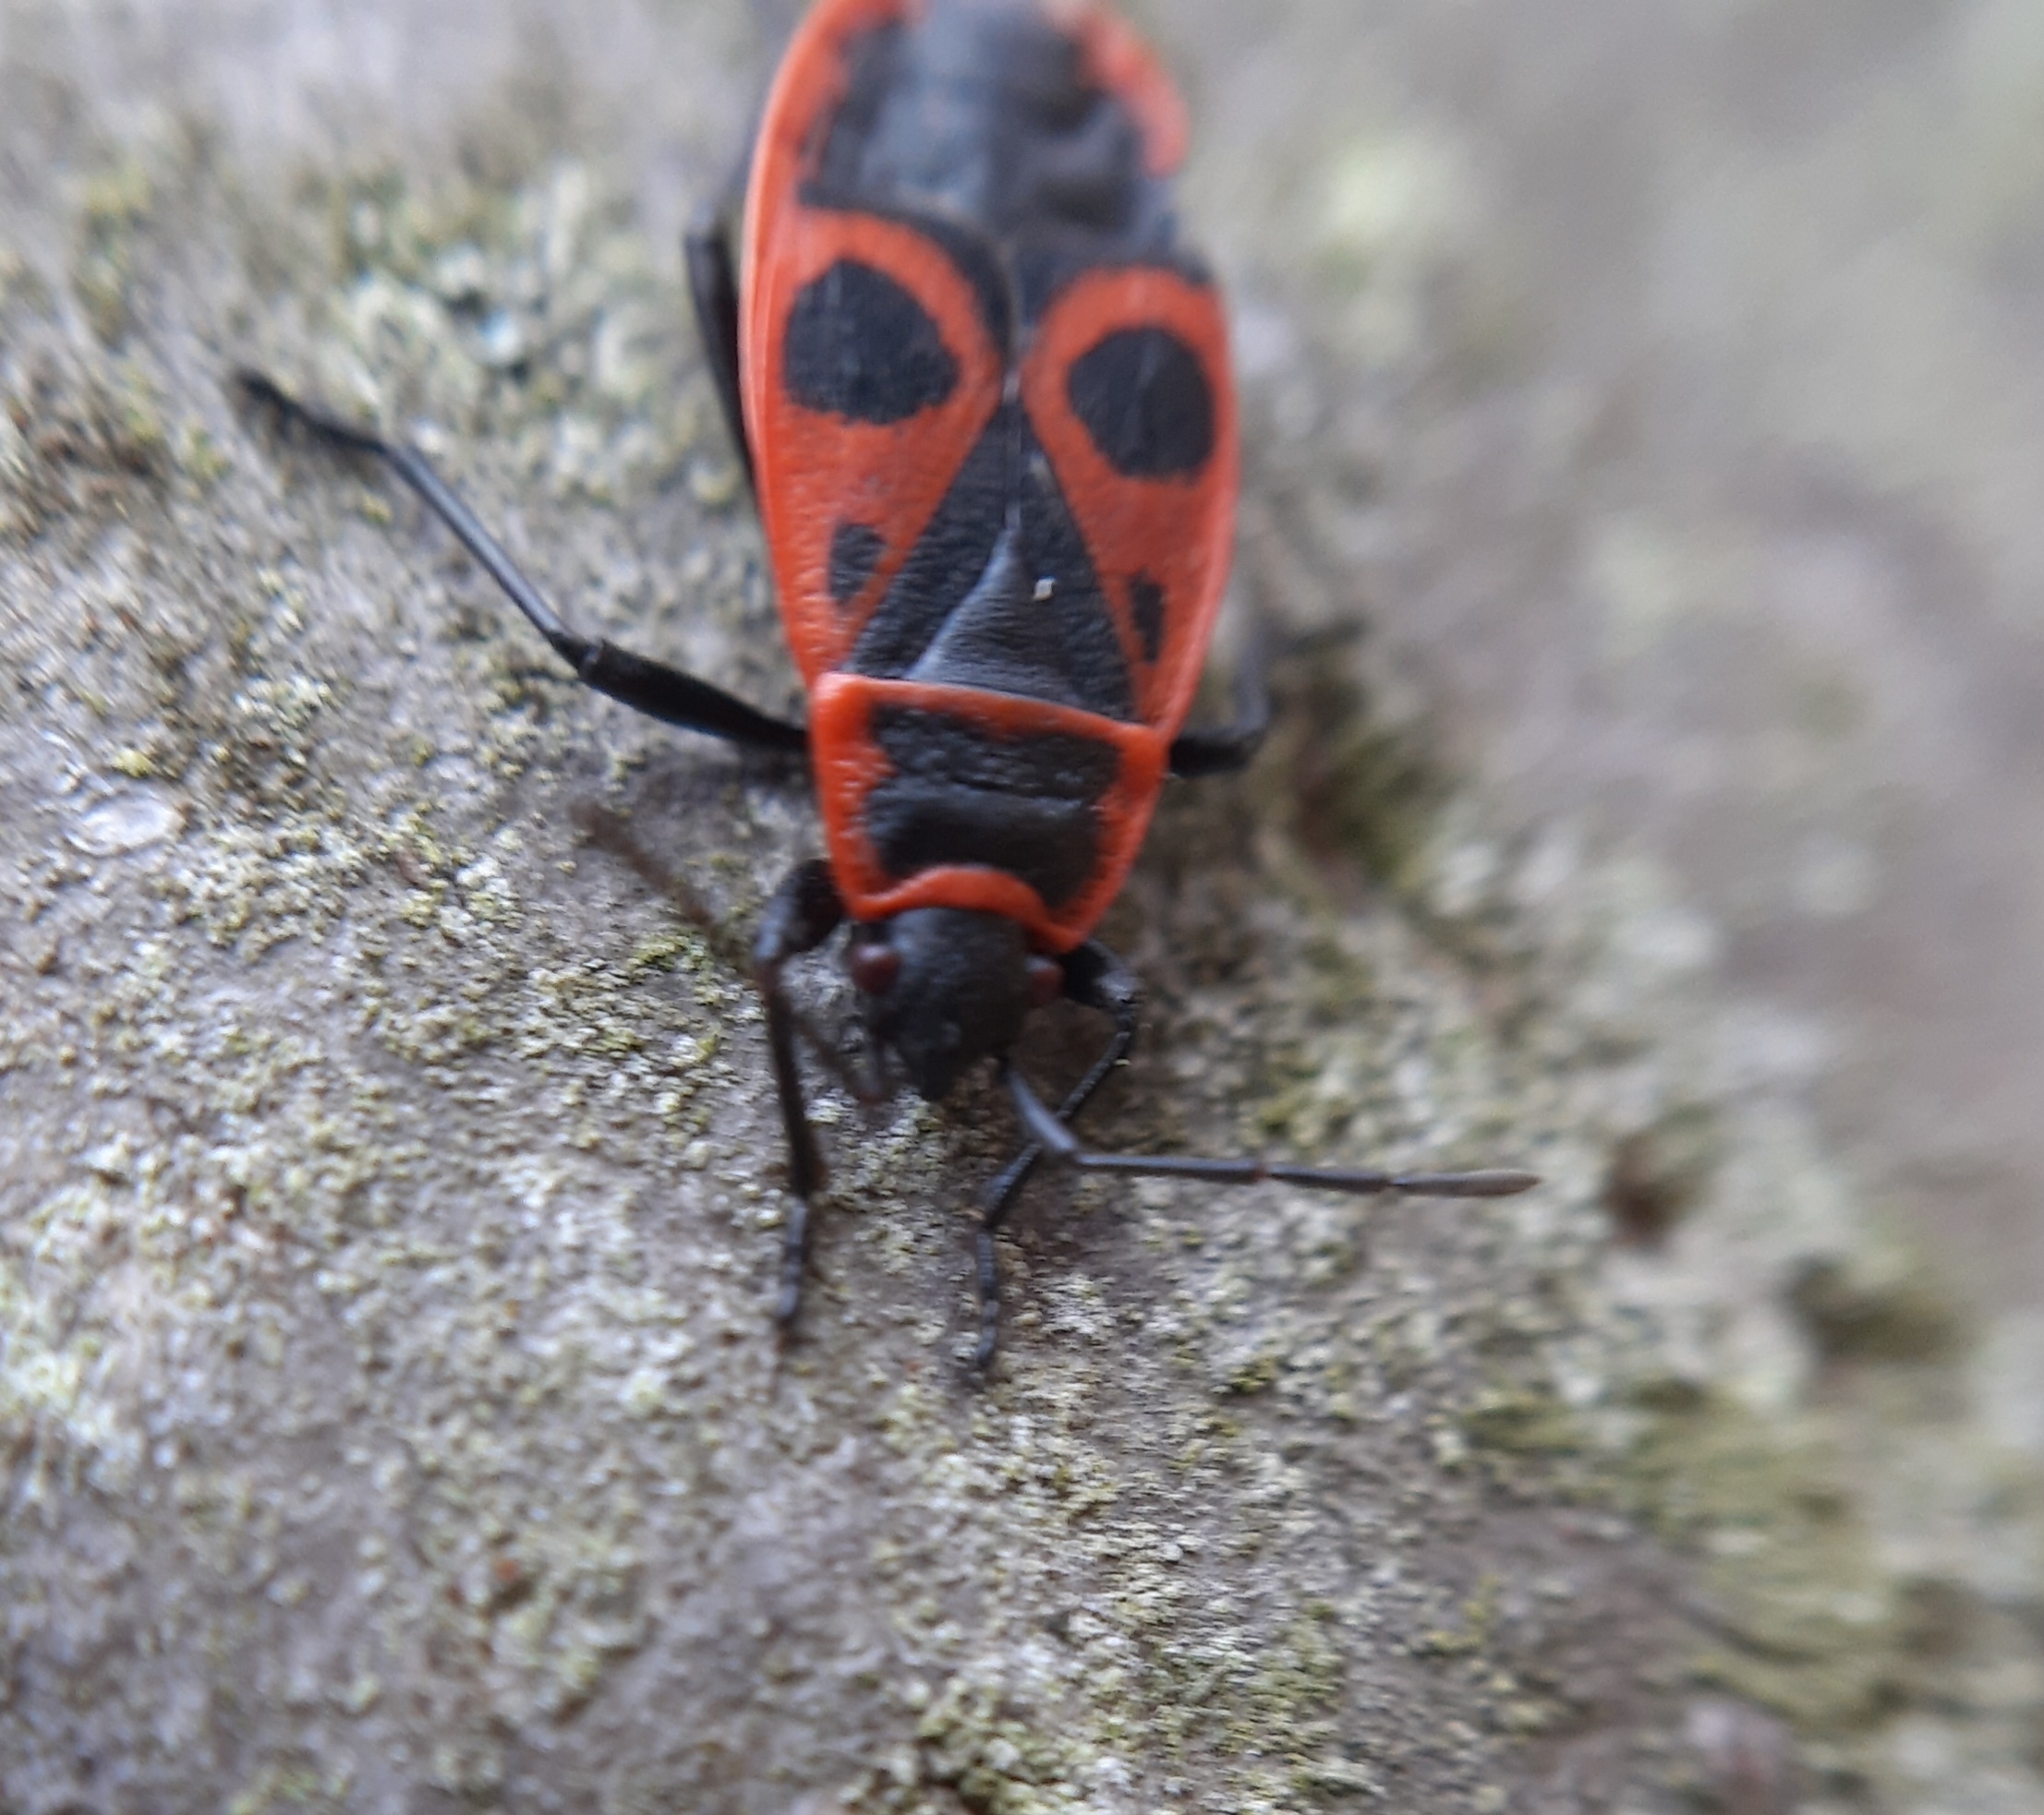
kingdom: Animalia
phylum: Arthropoda
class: Insecta
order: Hemiptera
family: Pyrrhocoridae
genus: Pyrrhocoris
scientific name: Pyrrhocoris apterus
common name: Firebug
